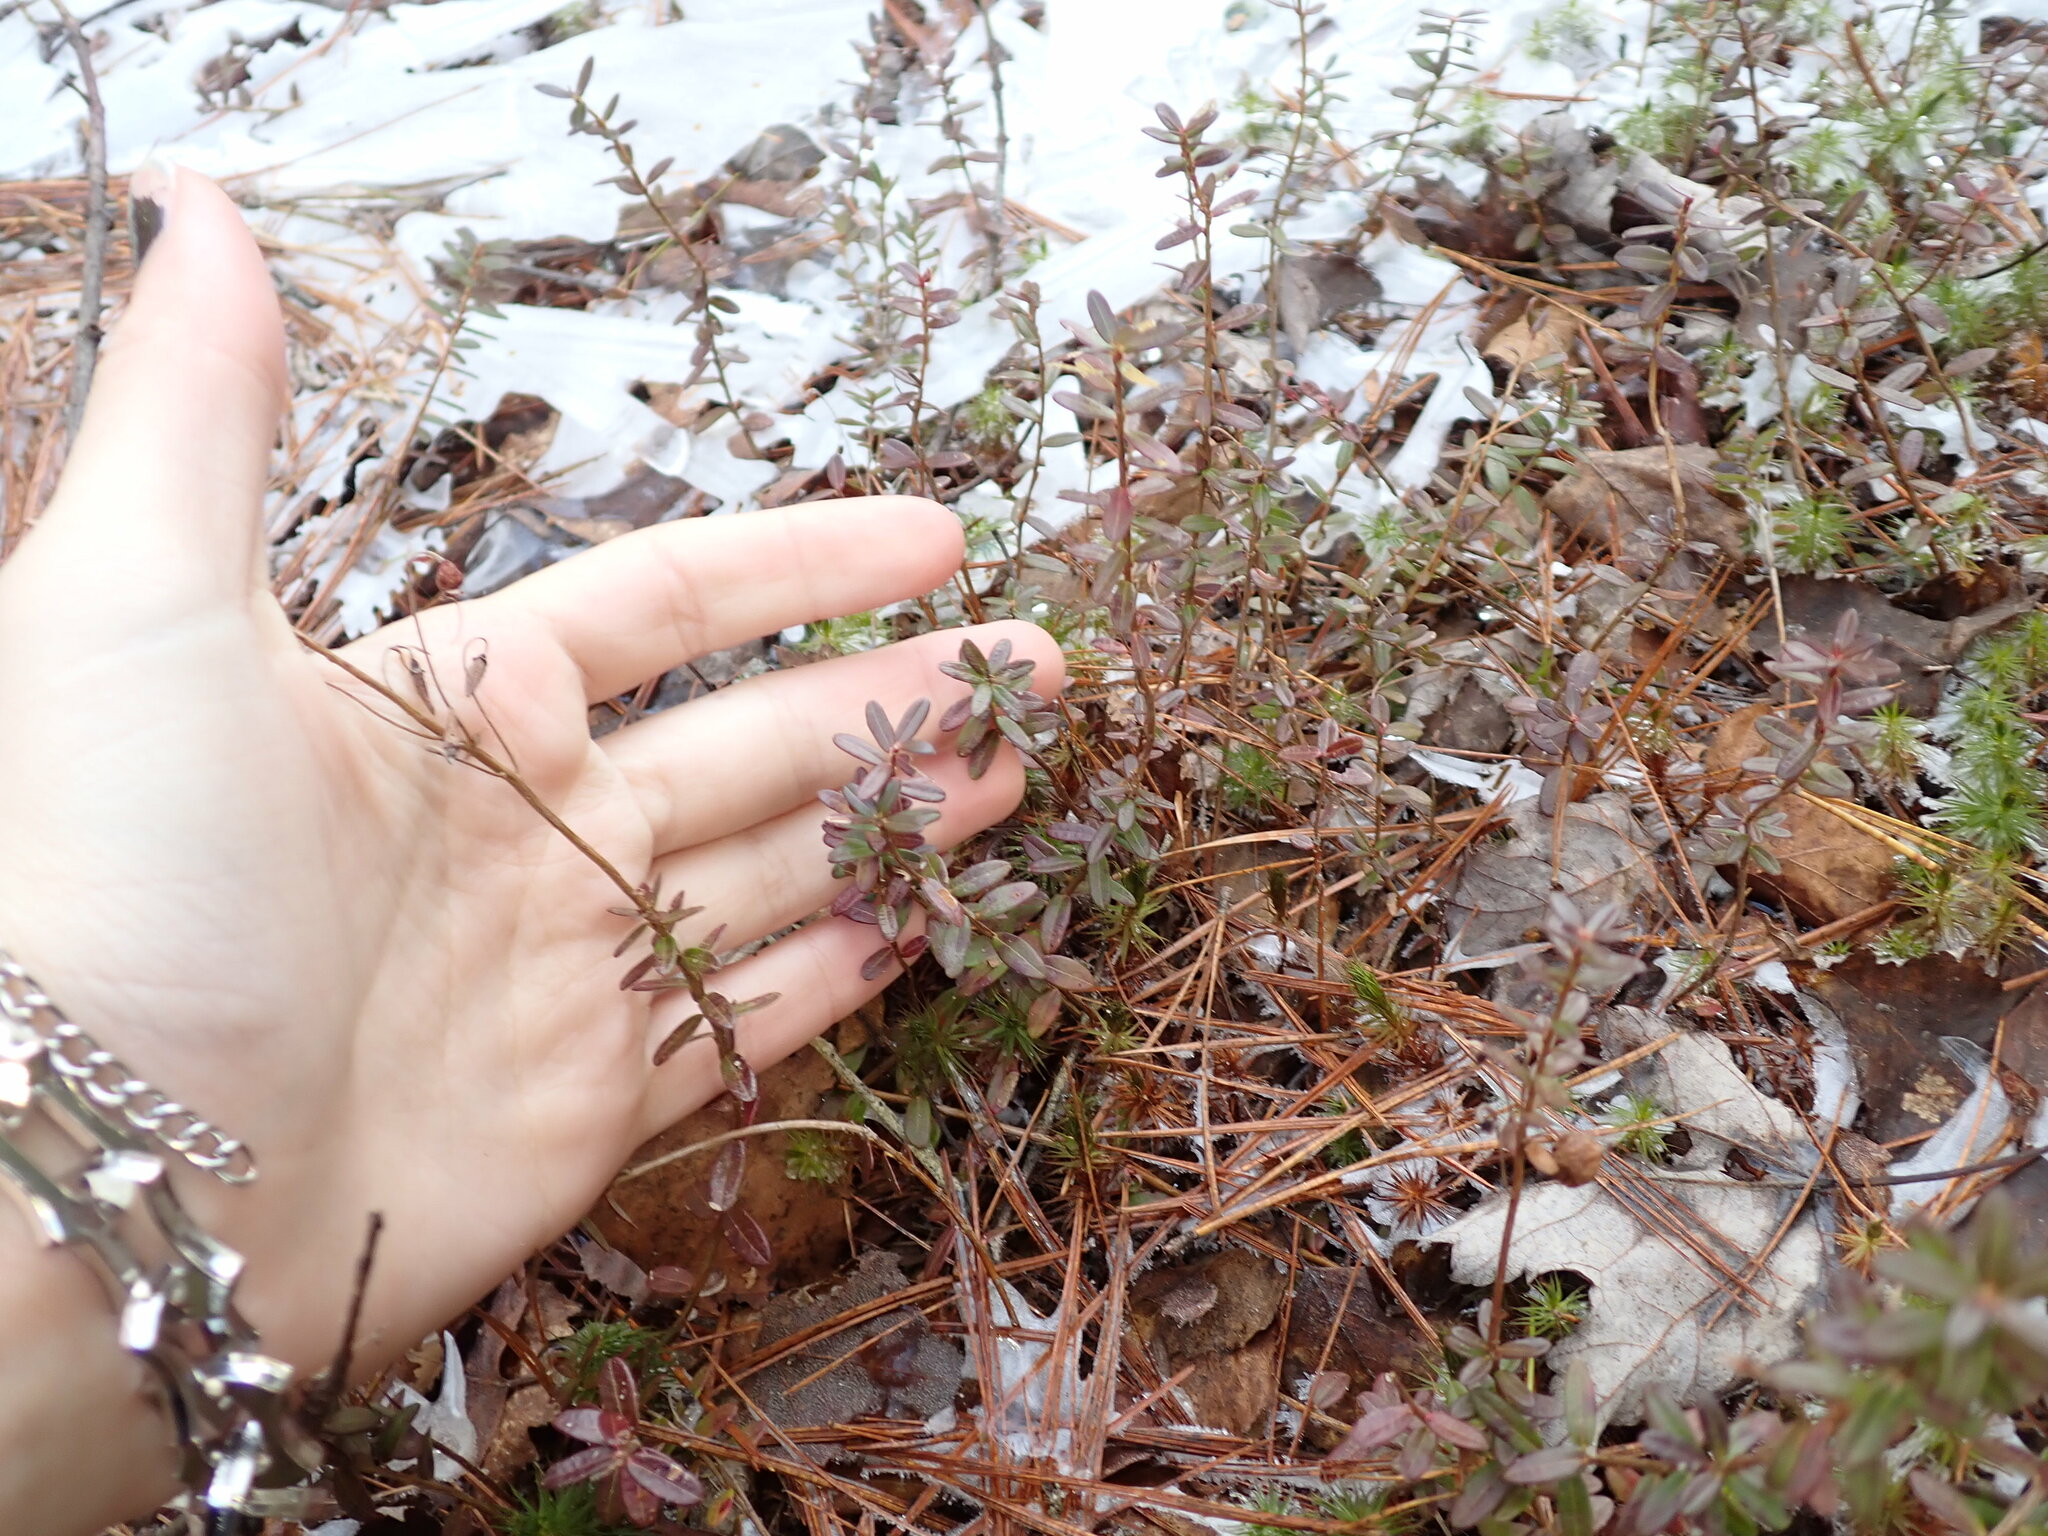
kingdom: Plantae
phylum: Tracheophyta
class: Magnoliopsida
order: Ericales
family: Ericaceae
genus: Vaccinium
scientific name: Vaccinium macrocarpon
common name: American cranberry
